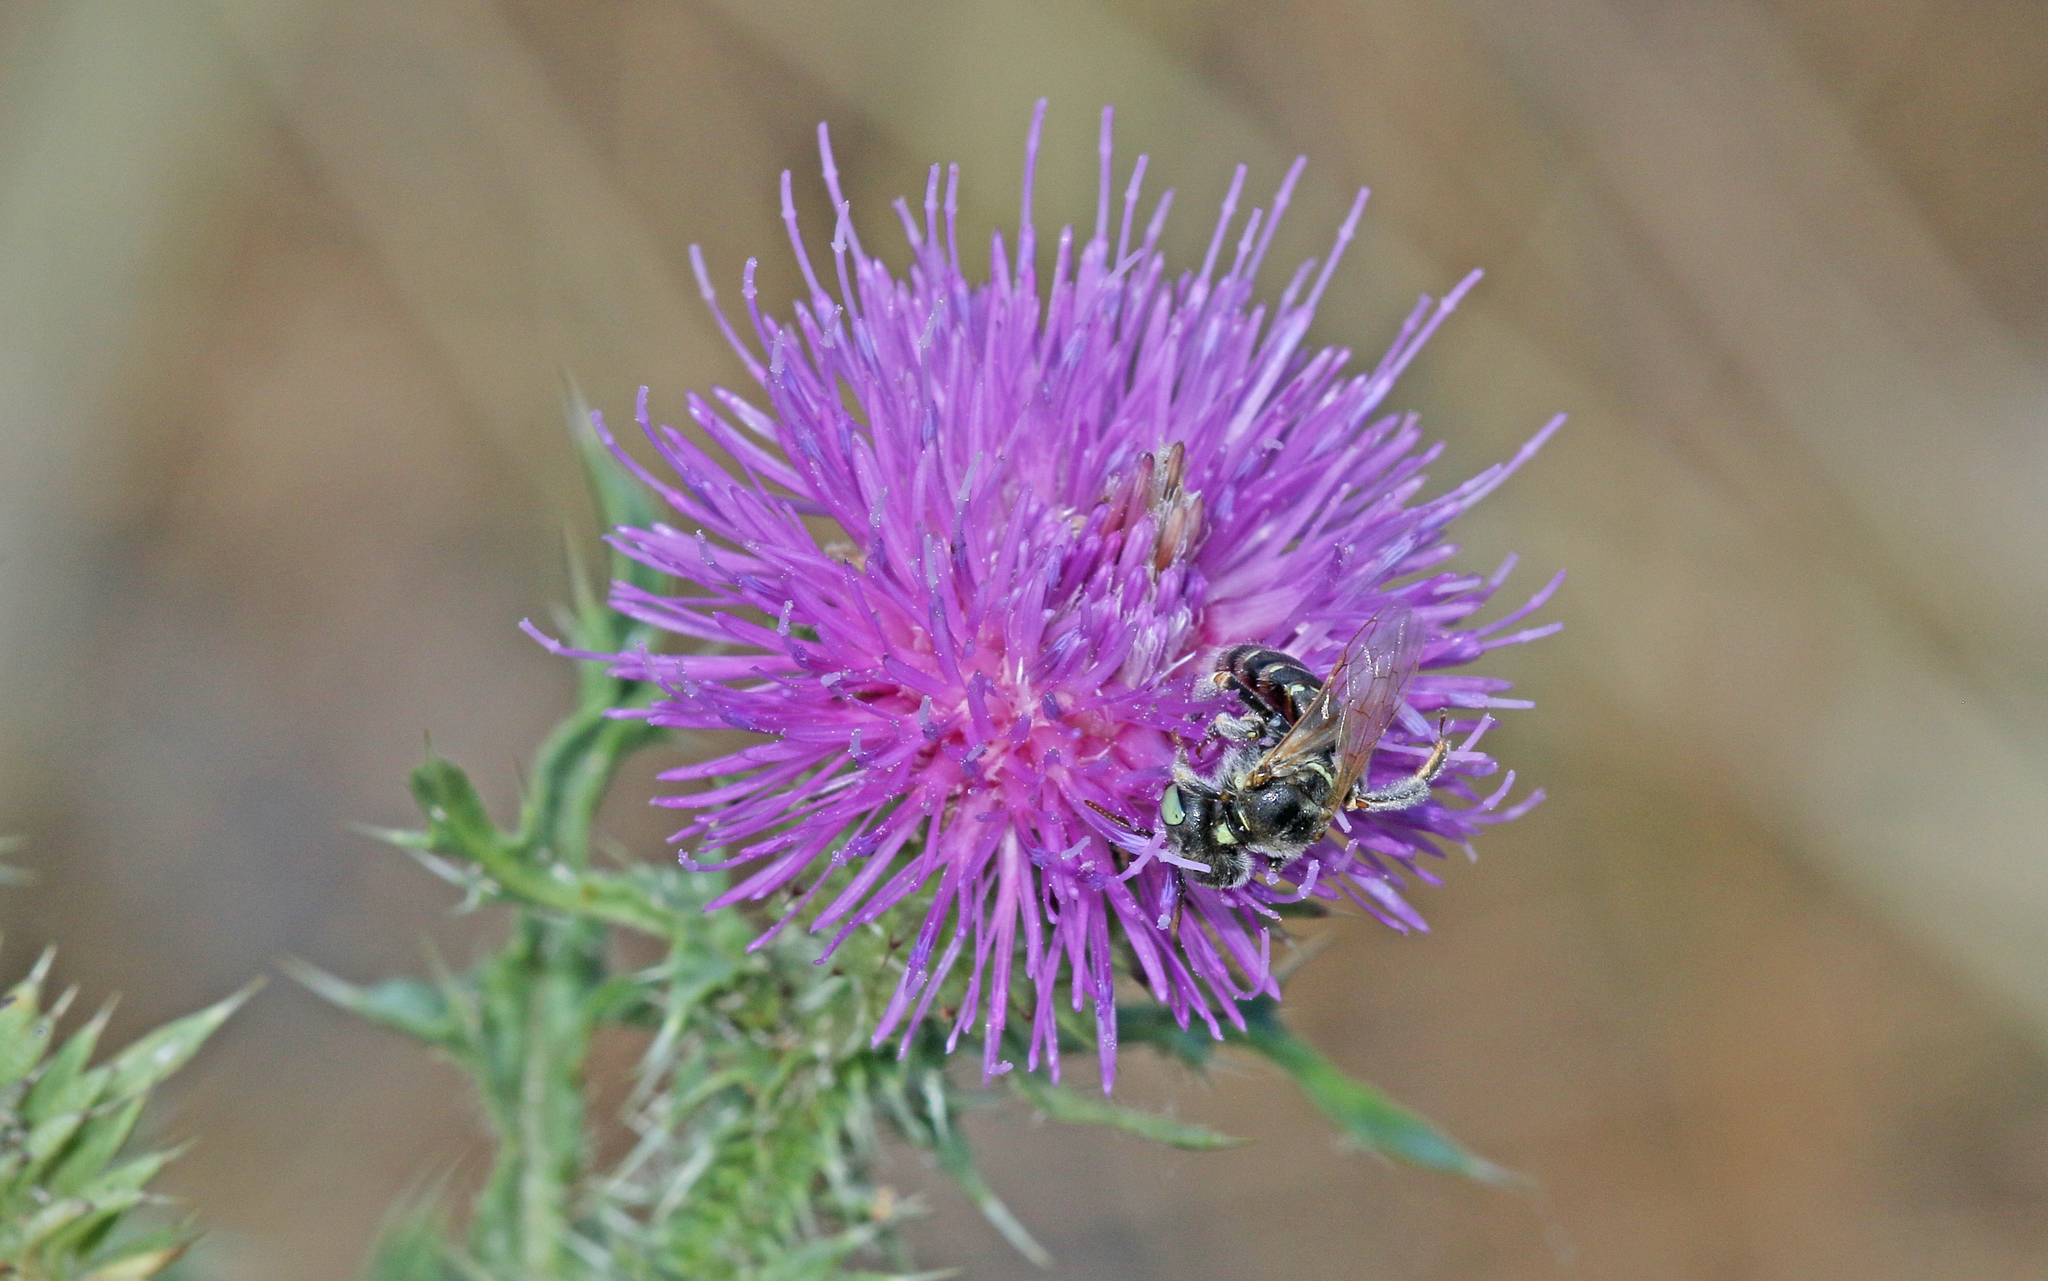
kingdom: Animalia
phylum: Arthropoda
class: Insecta
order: Hymenoptera
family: Andrenidae
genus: Camptopoeum
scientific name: Camptopoeum friesei
